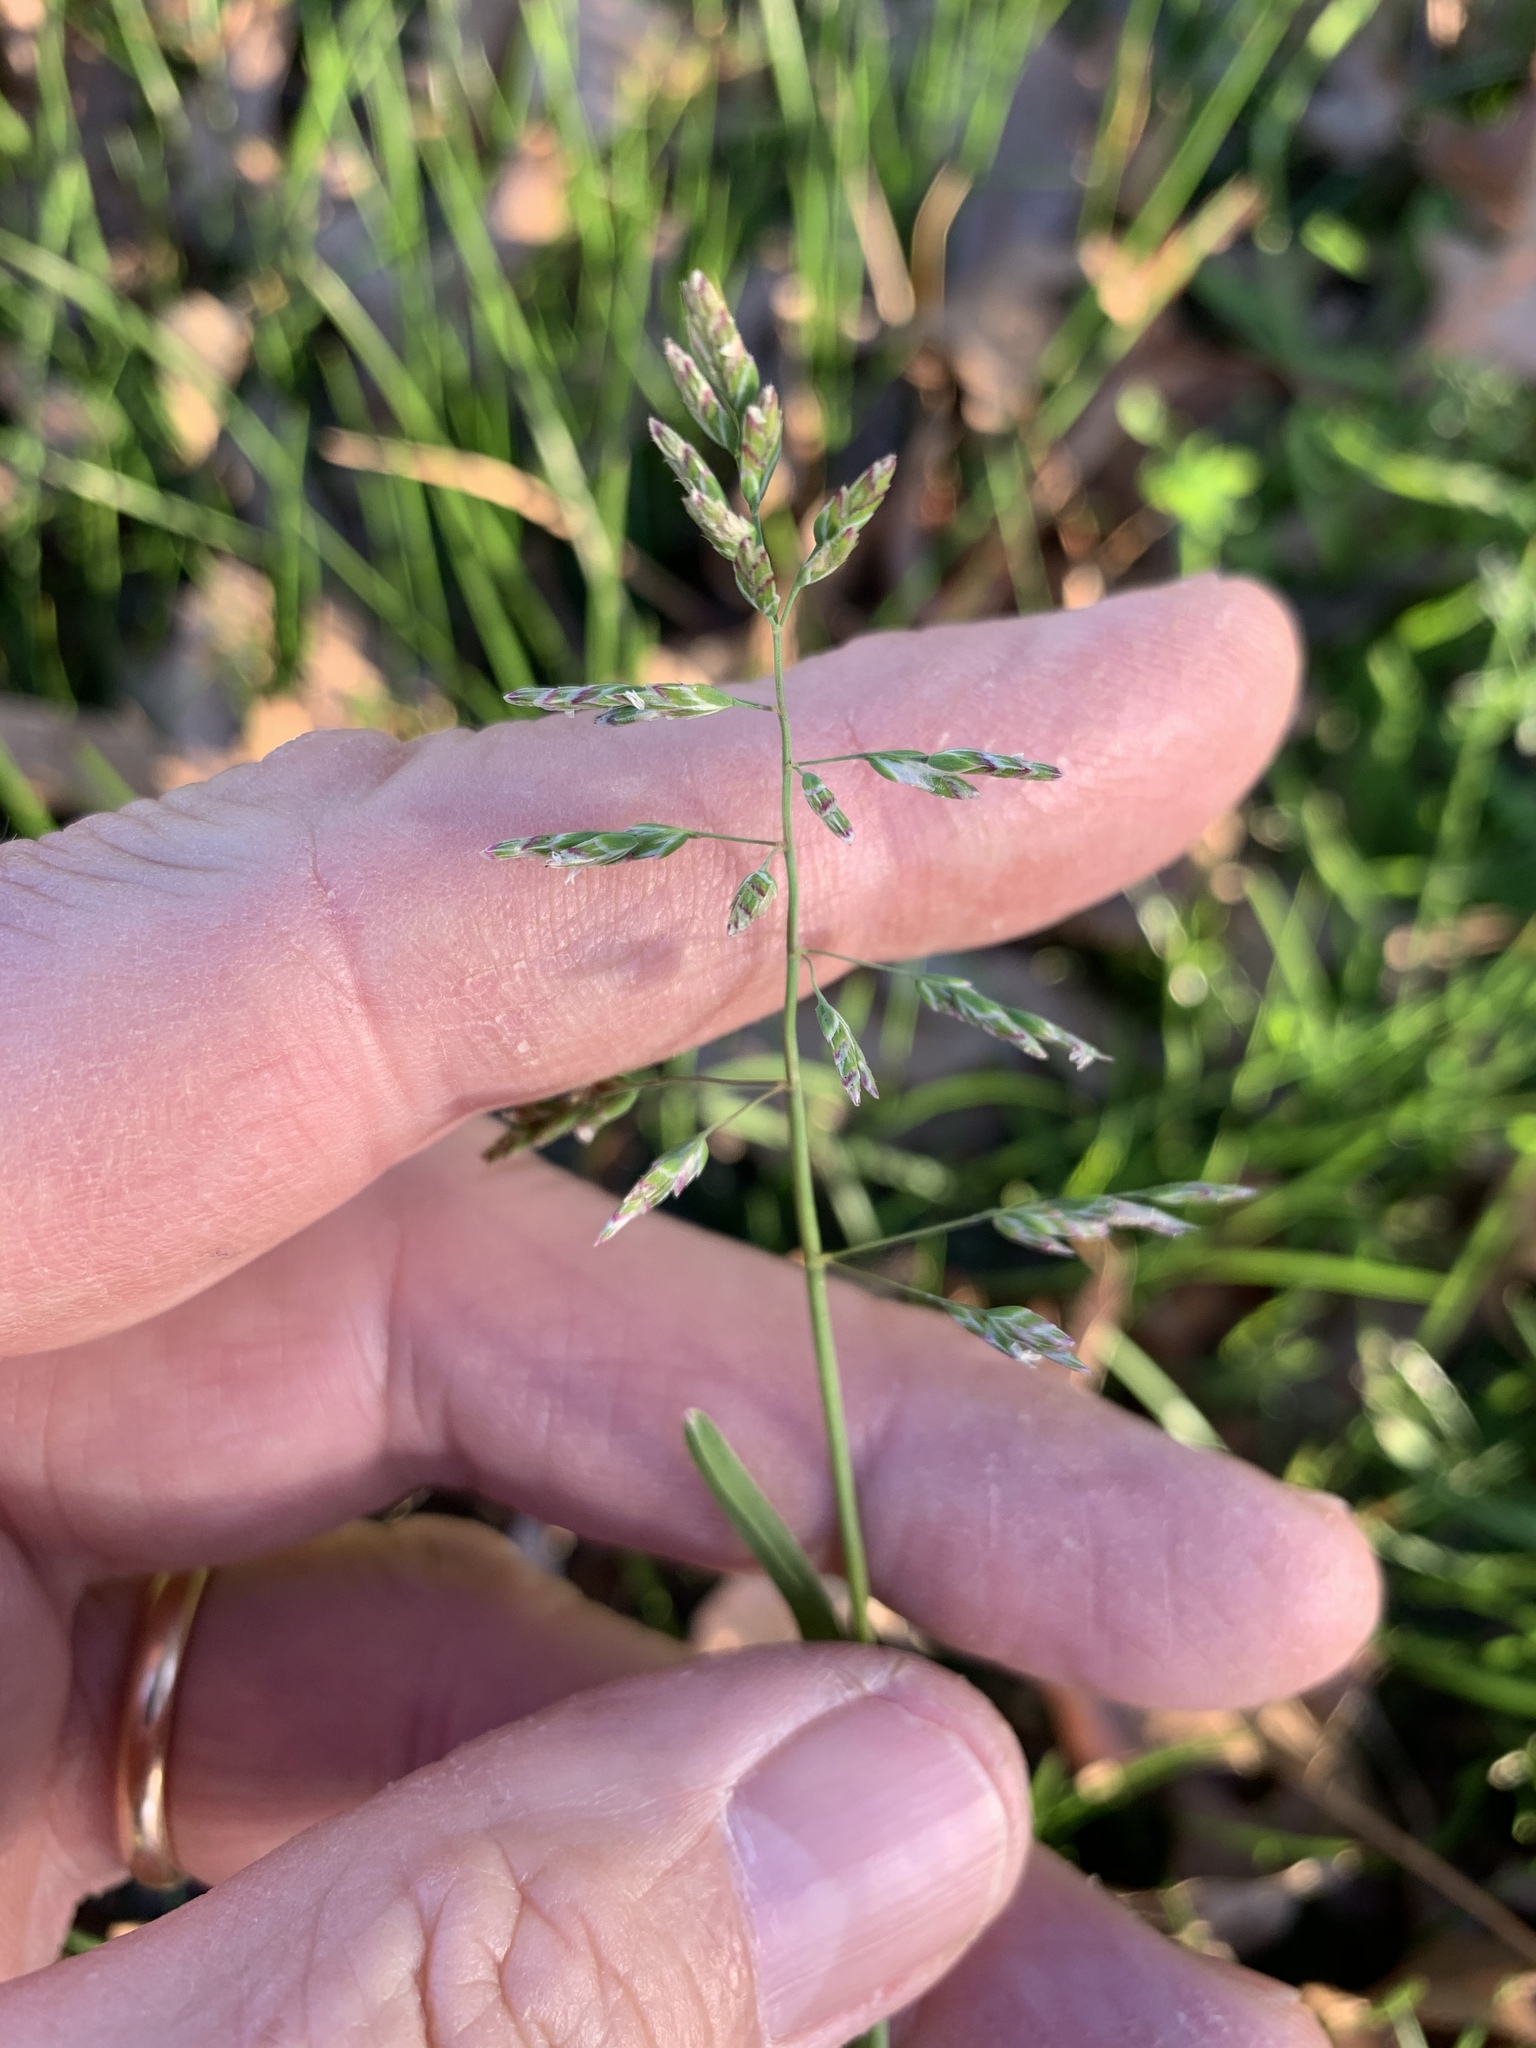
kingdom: Plantae
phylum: Tracheophyta
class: Liliopsida
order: Poales
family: Poaceae
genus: Poa
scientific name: Poa annua
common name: Annual bluegrass
